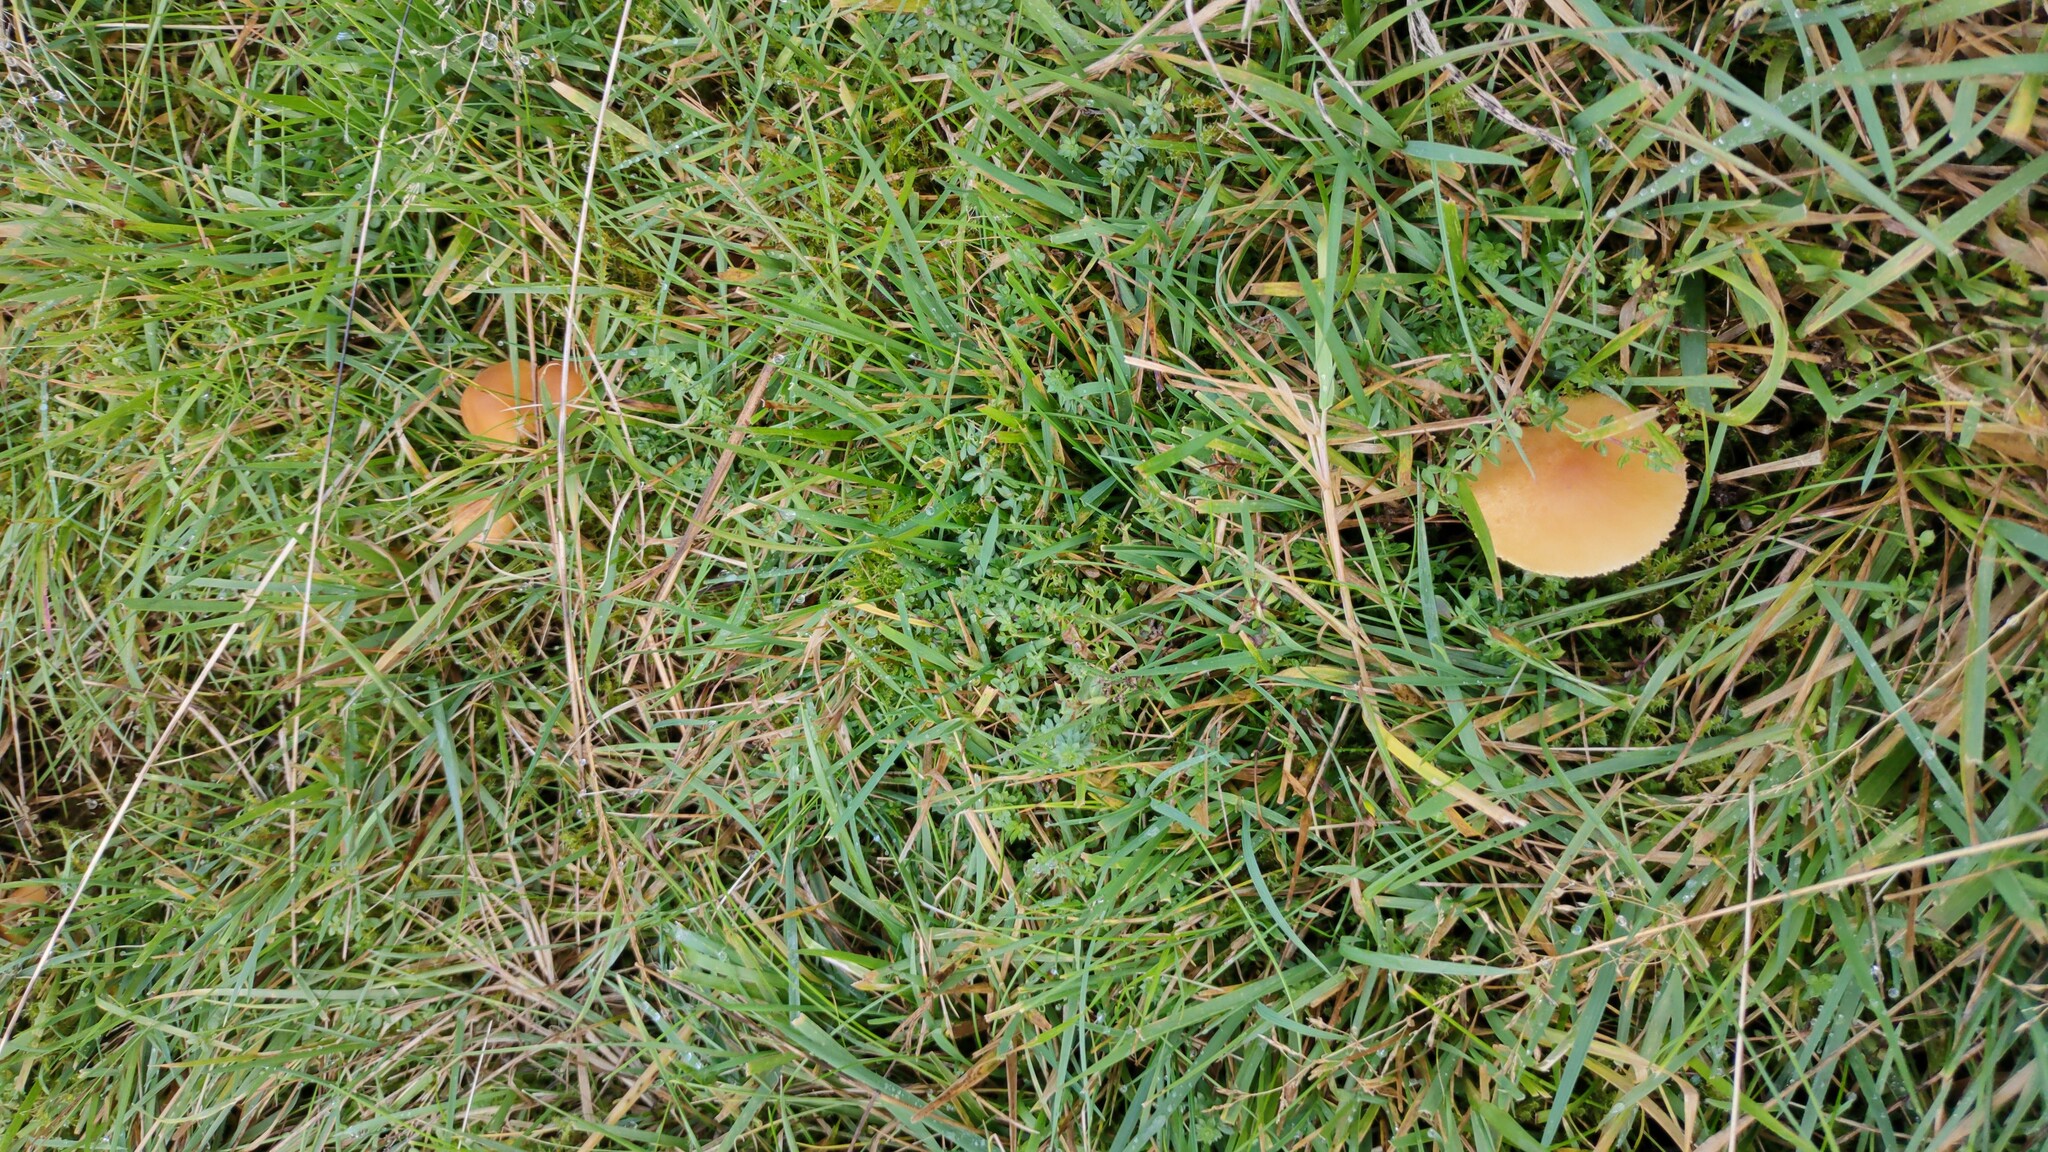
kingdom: Fungi
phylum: Basidiomycota
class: Agaricomycetes
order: Agaricales
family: Hygrophoraceae
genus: Cuphophyllus
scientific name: Cuphophyllus pratensis
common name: Meadow waxcap
